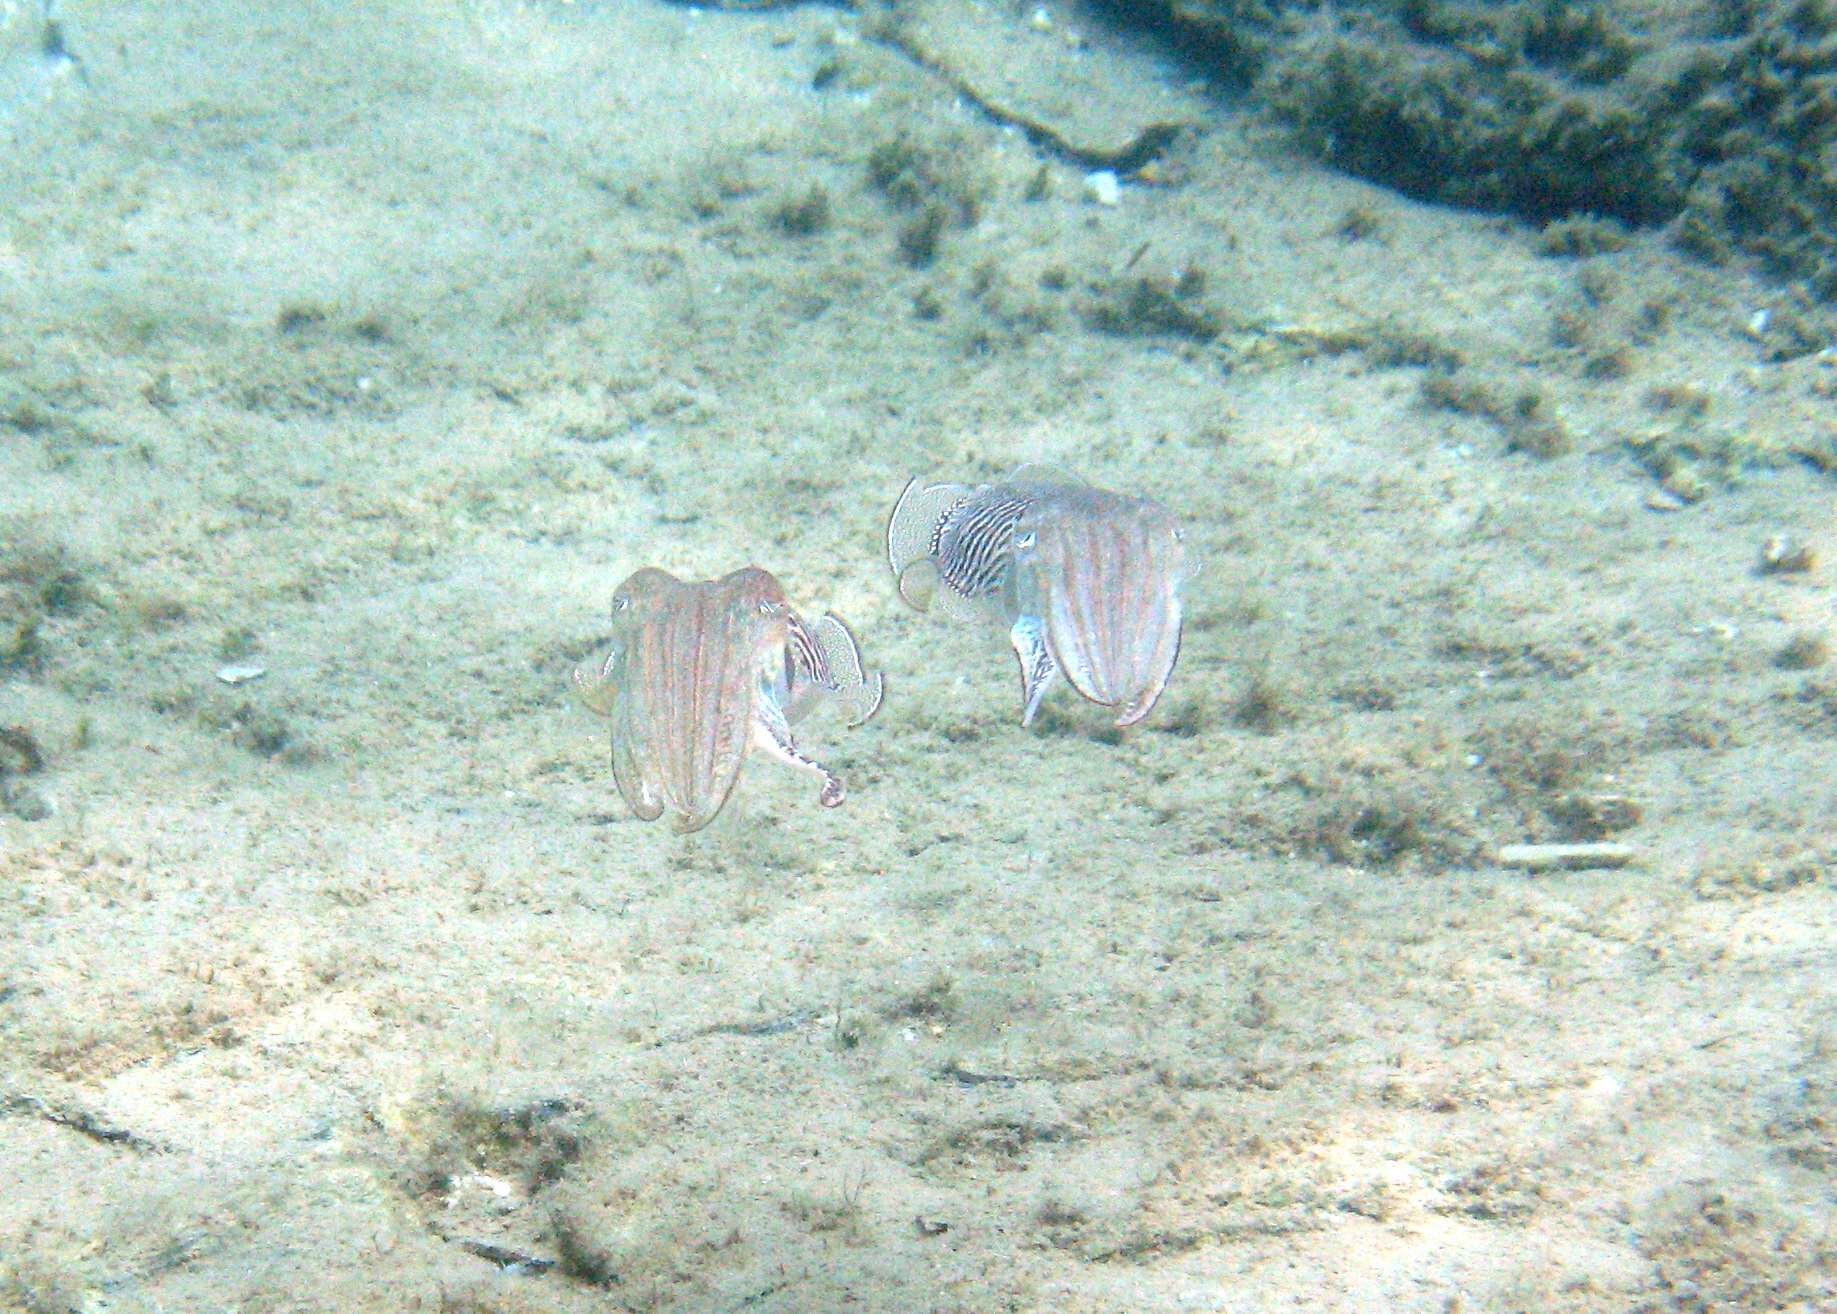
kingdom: Animalia
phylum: Mollusca
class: Cephalopoda
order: Sepiida
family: Sepiidae
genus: Sepia
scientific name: Sepia officinalis
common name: Common cuttlefish
